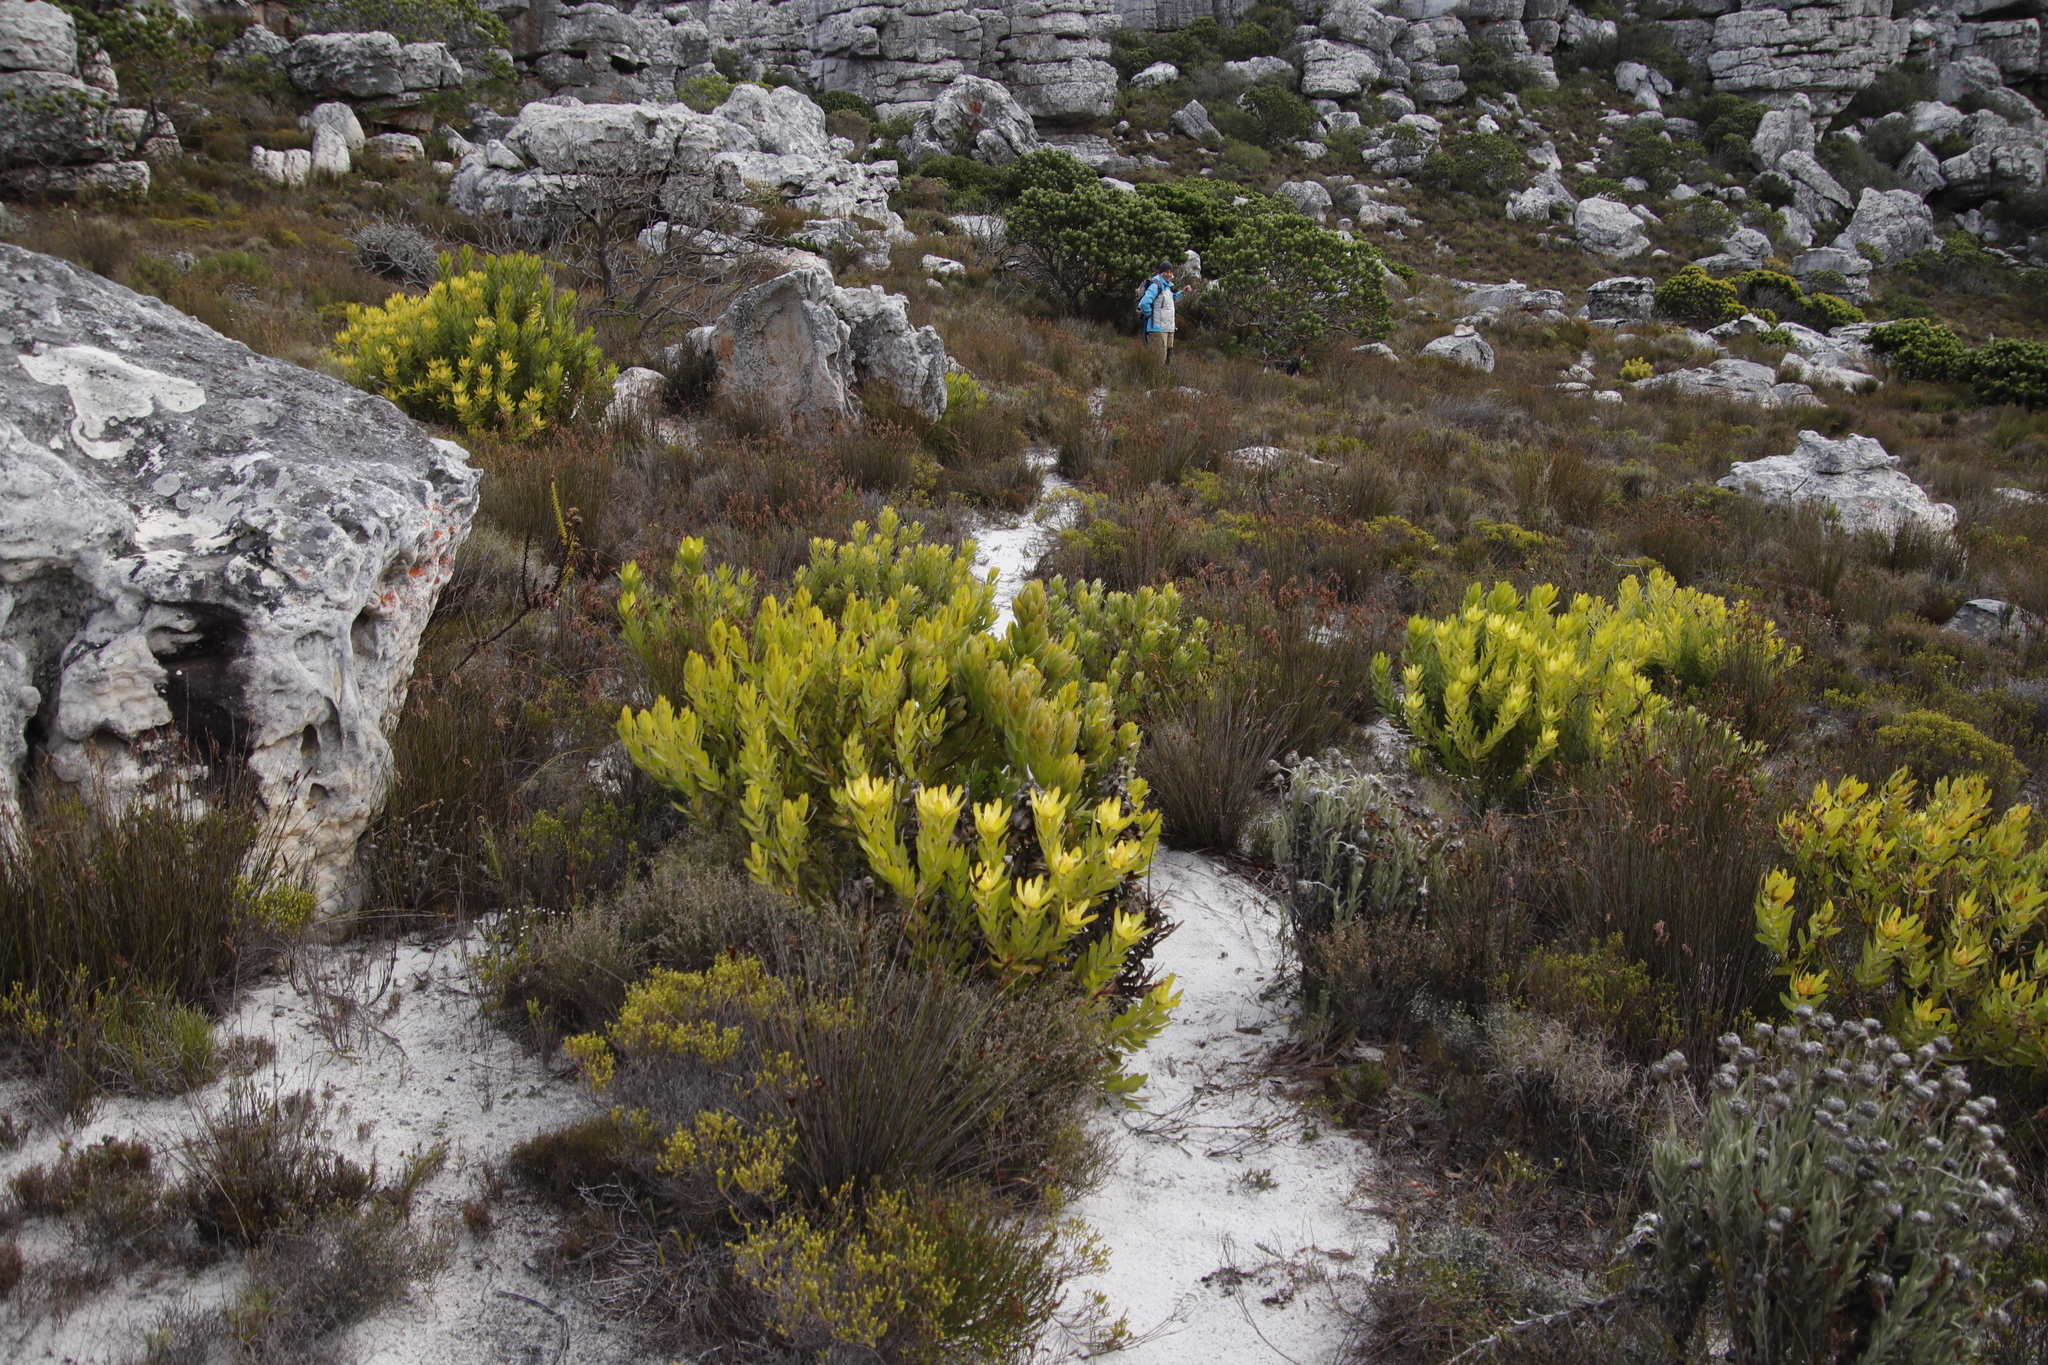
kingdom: Plantae
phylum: Tracheophyta
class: Magnoliopsida
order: Proteales
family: Proteaceae
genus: Leucadendron
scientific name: Leucadendron laureolum
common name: Golden sunshinebush
